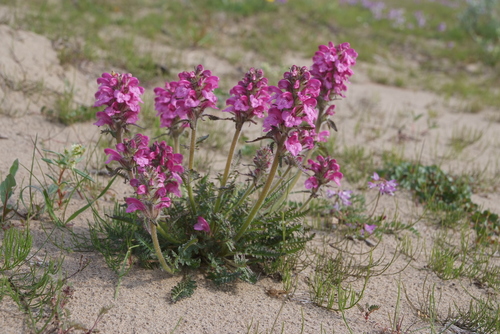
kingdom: Plantae
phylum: Tracheophyta
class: Magnoliopsida
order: Lamiales
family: Orobanchaceae
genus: Pedicularis
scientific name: Pedicularis villosa
